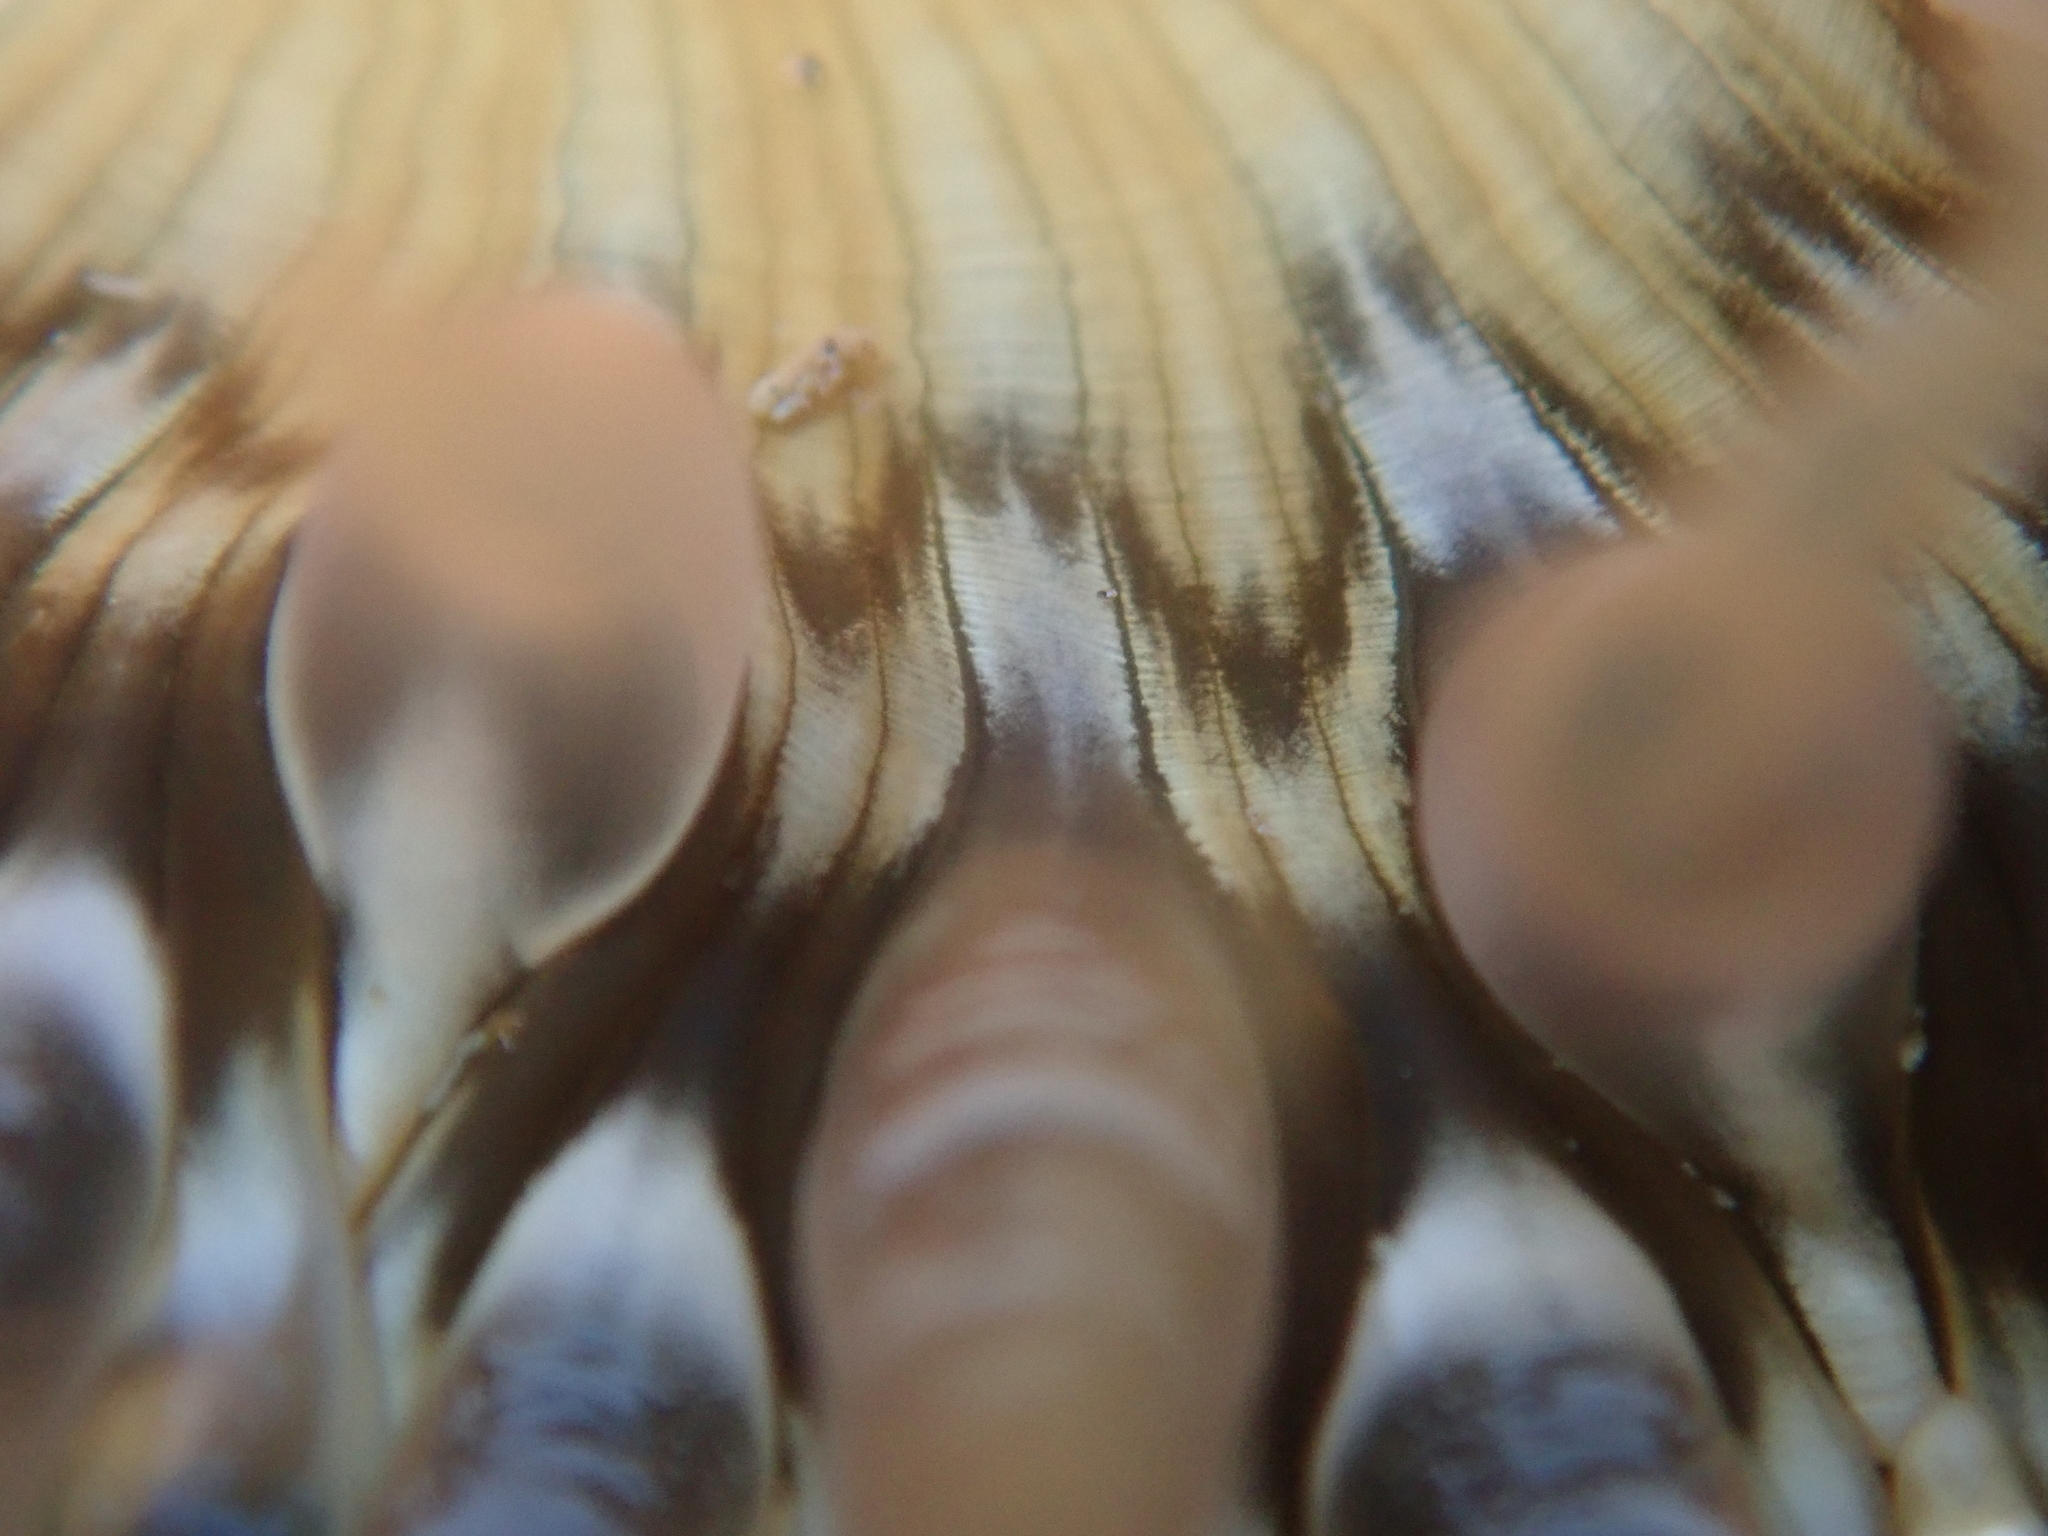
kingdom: Animalia
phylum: Cnidaria
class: Anthozoa
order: Actiniaria
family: Actiniidae
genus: Oulactis
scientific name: Oulactis muscosa
